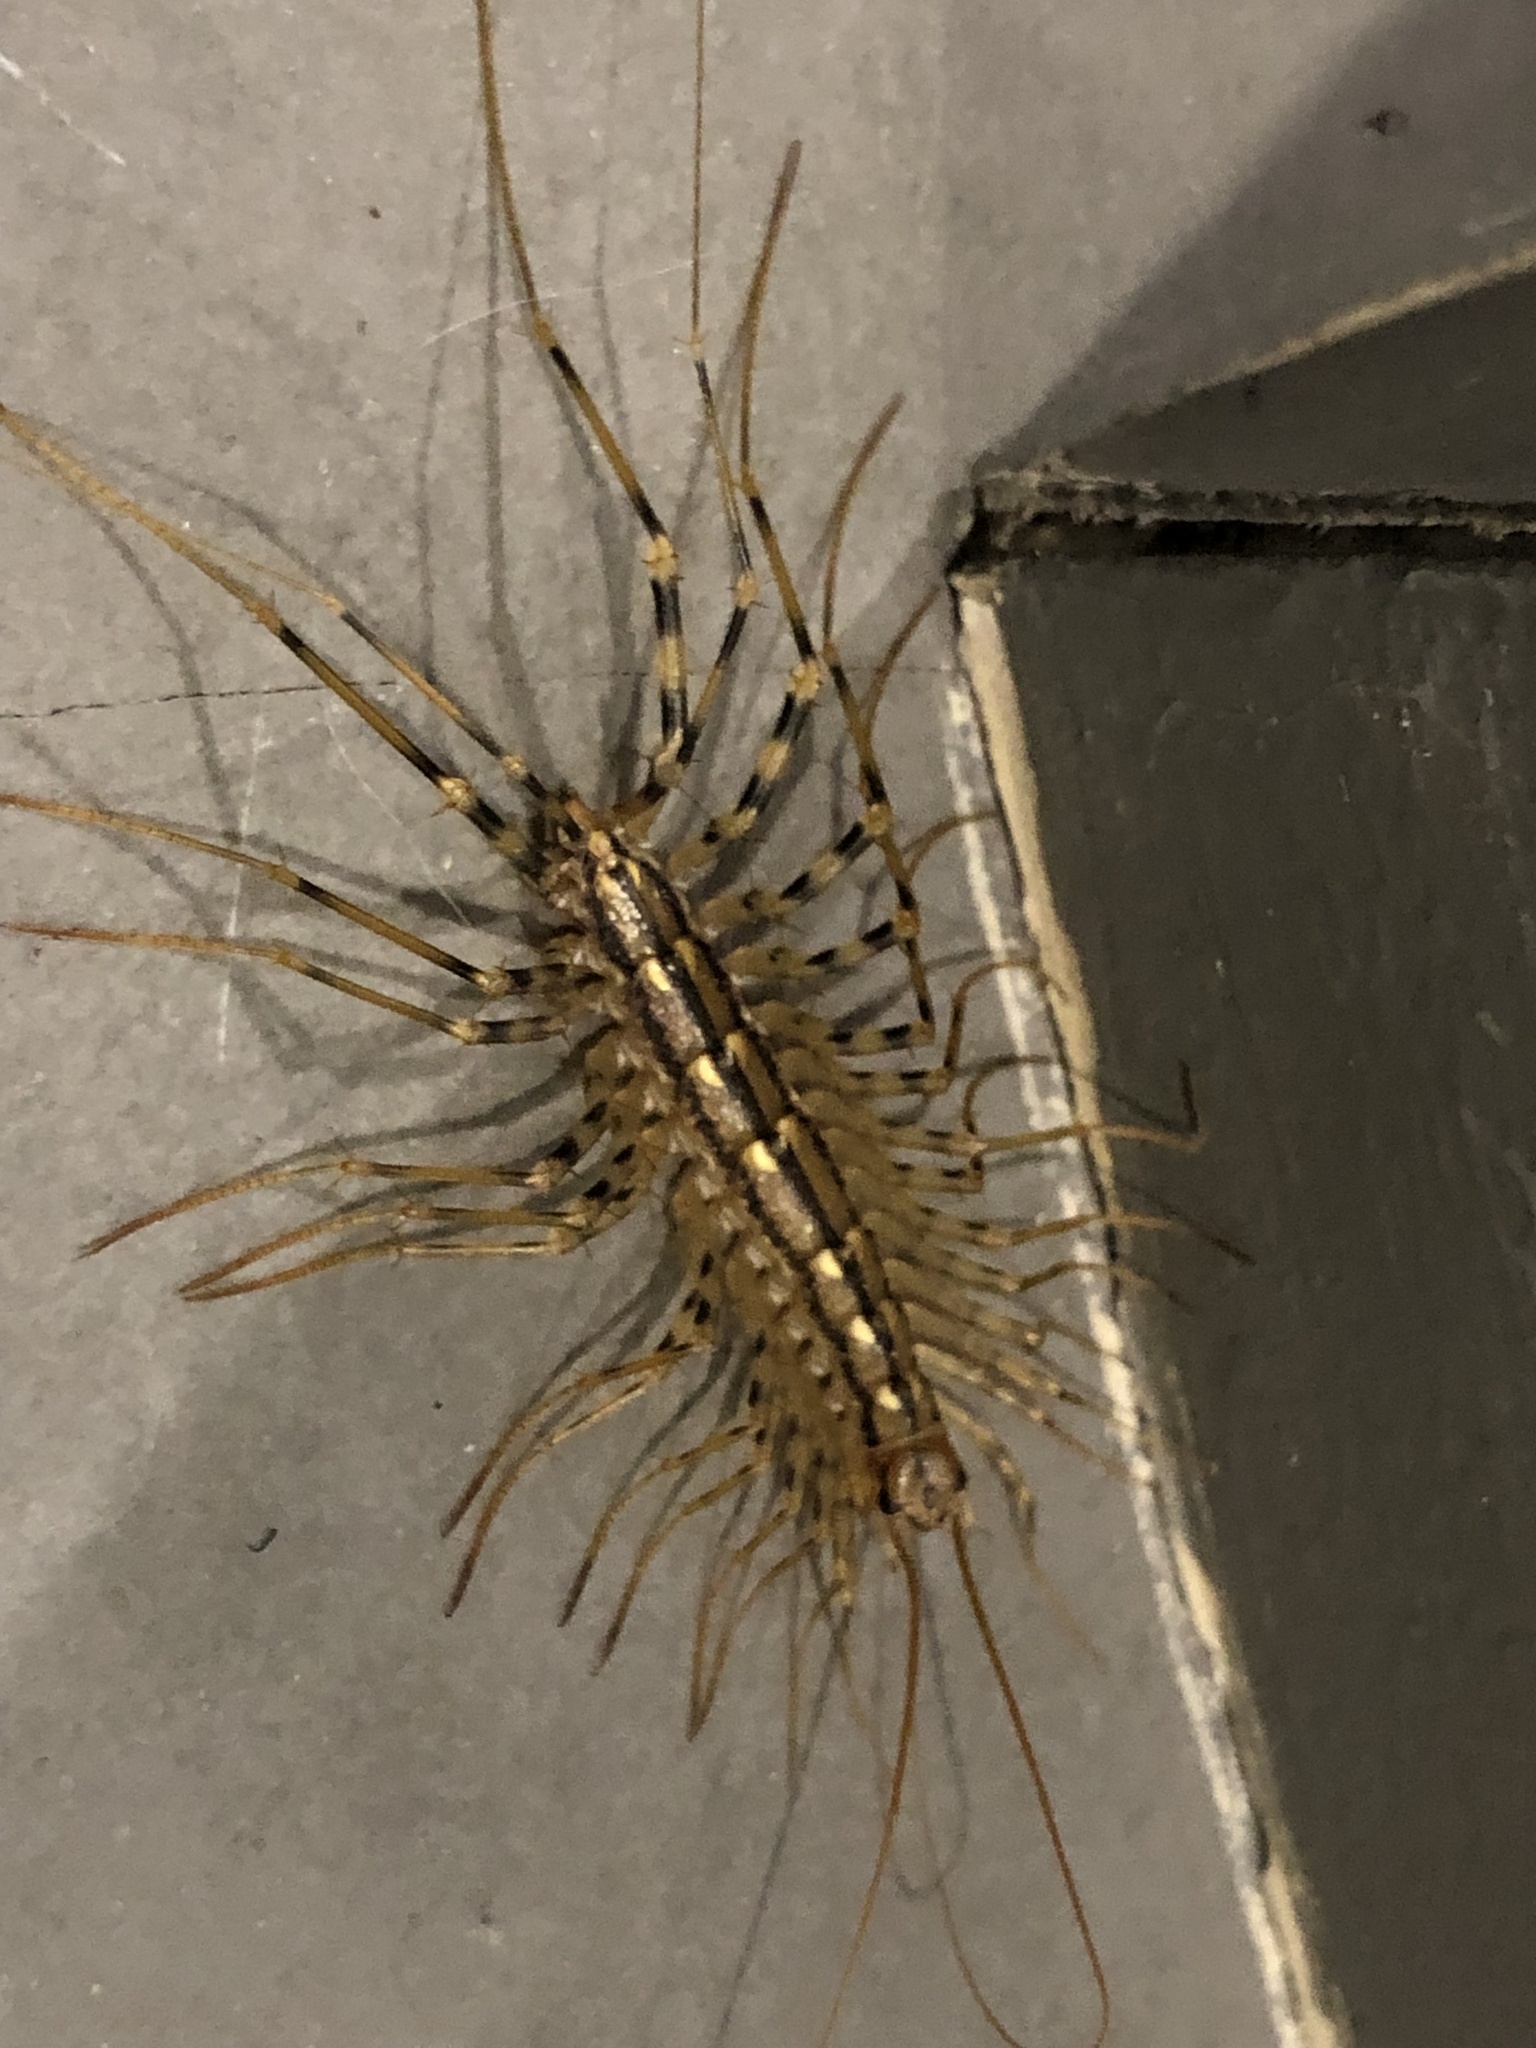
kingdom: Animalia
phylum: Arthropoda
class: Chilopoda
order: Scutigeromorpha
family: Scutigeridae
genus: Scutigera
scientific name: Scutigera coleoptrata
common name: House centipede
